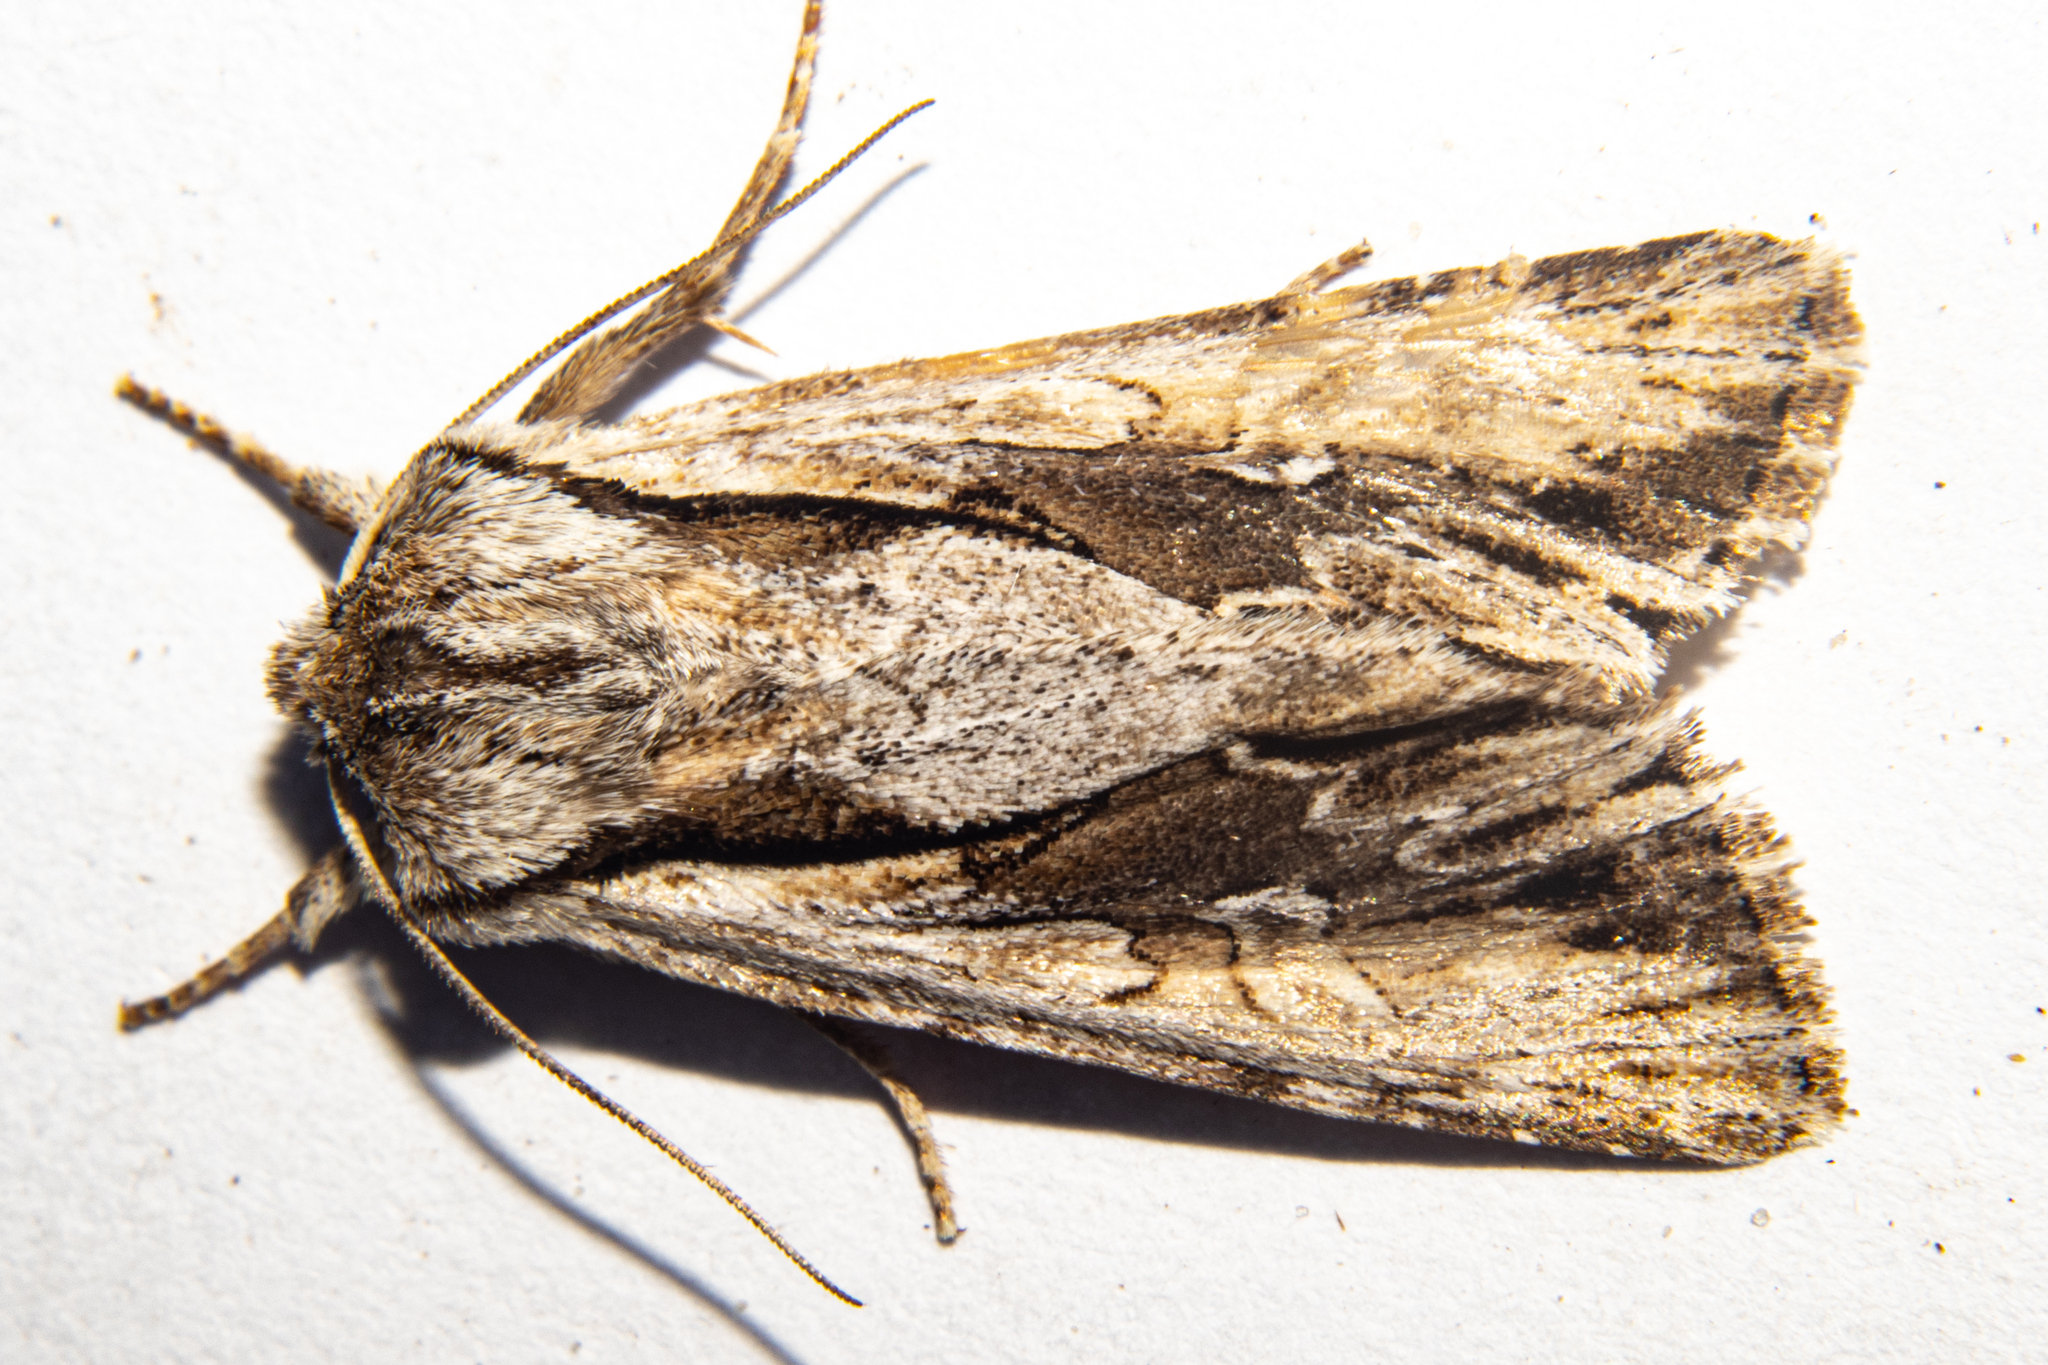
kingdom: Animalia
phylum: Arthropoda
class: Insecta
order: Lepidoptera
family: Noctuidae
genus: Ichneutica
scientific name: Ichneutica
